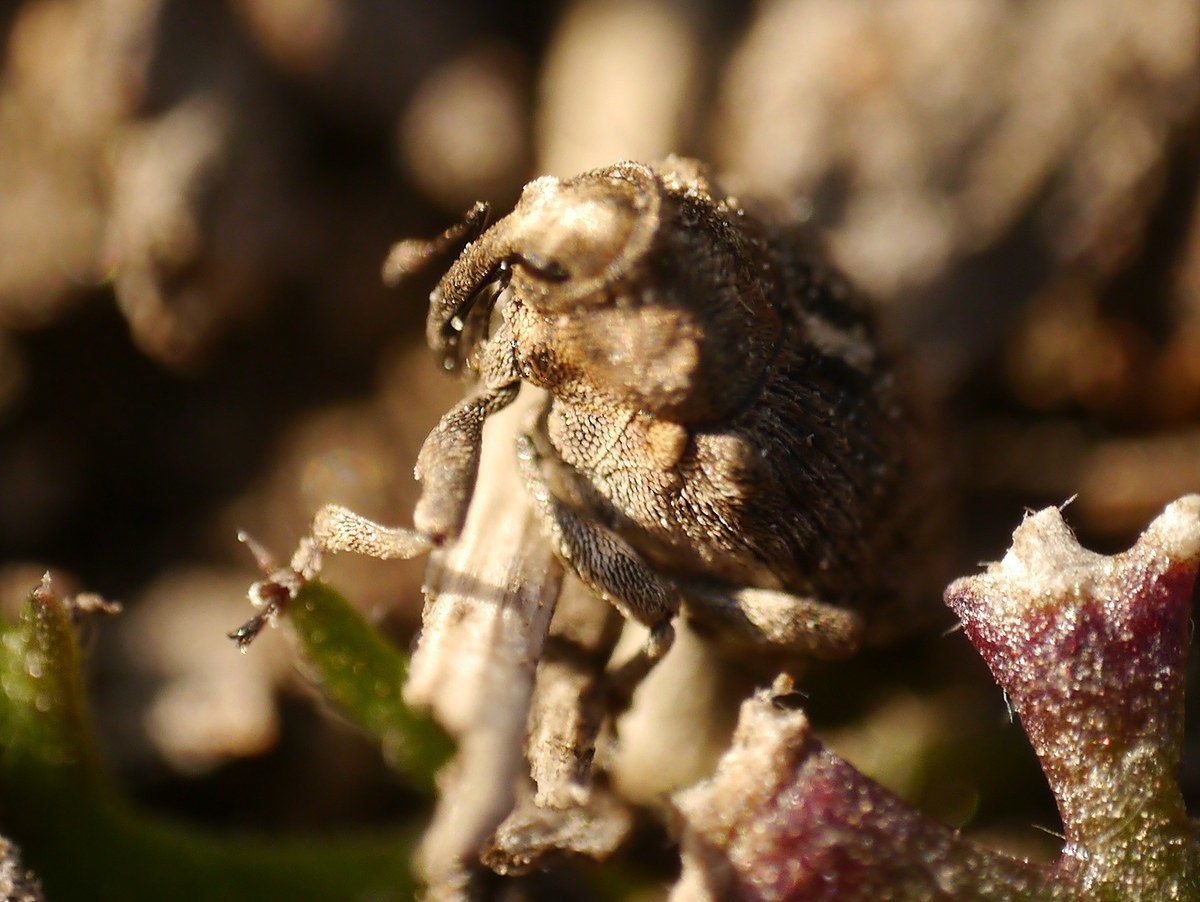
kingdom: Animalia
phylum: Arthropoda
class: Insecta
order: Coleoptera
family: Curculionidae
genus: Ethelcus
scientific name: Ethelcus denticulatus
